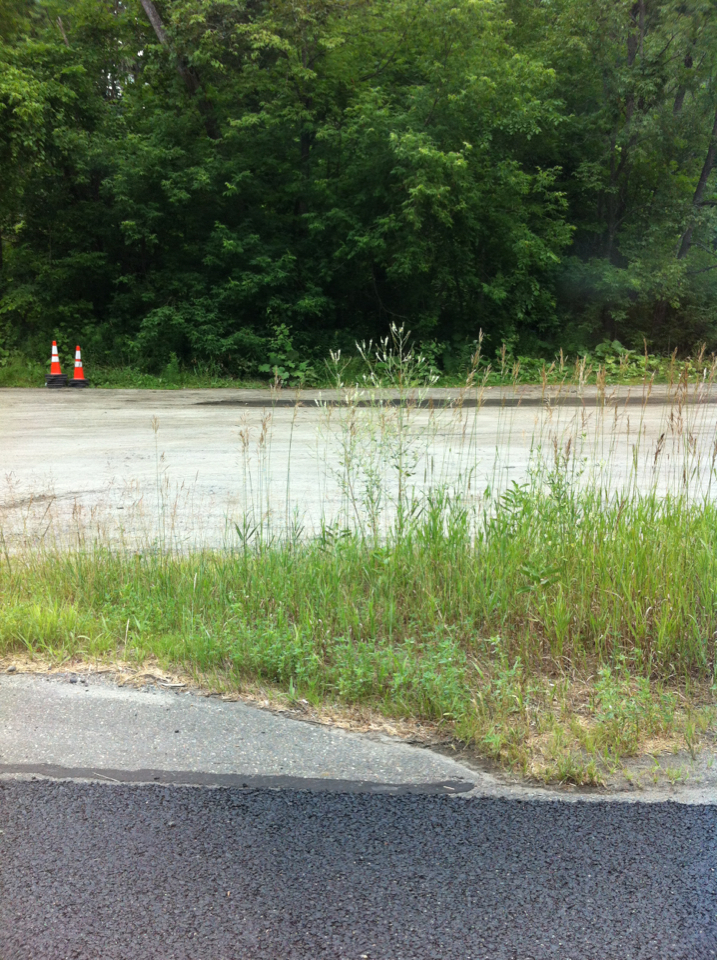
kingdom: Plantae
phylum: Tracheophyta
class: Liliopsida
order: Poales
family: Poaceae
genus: Bromus
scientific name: Bromus inermis
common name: Smooth brome
